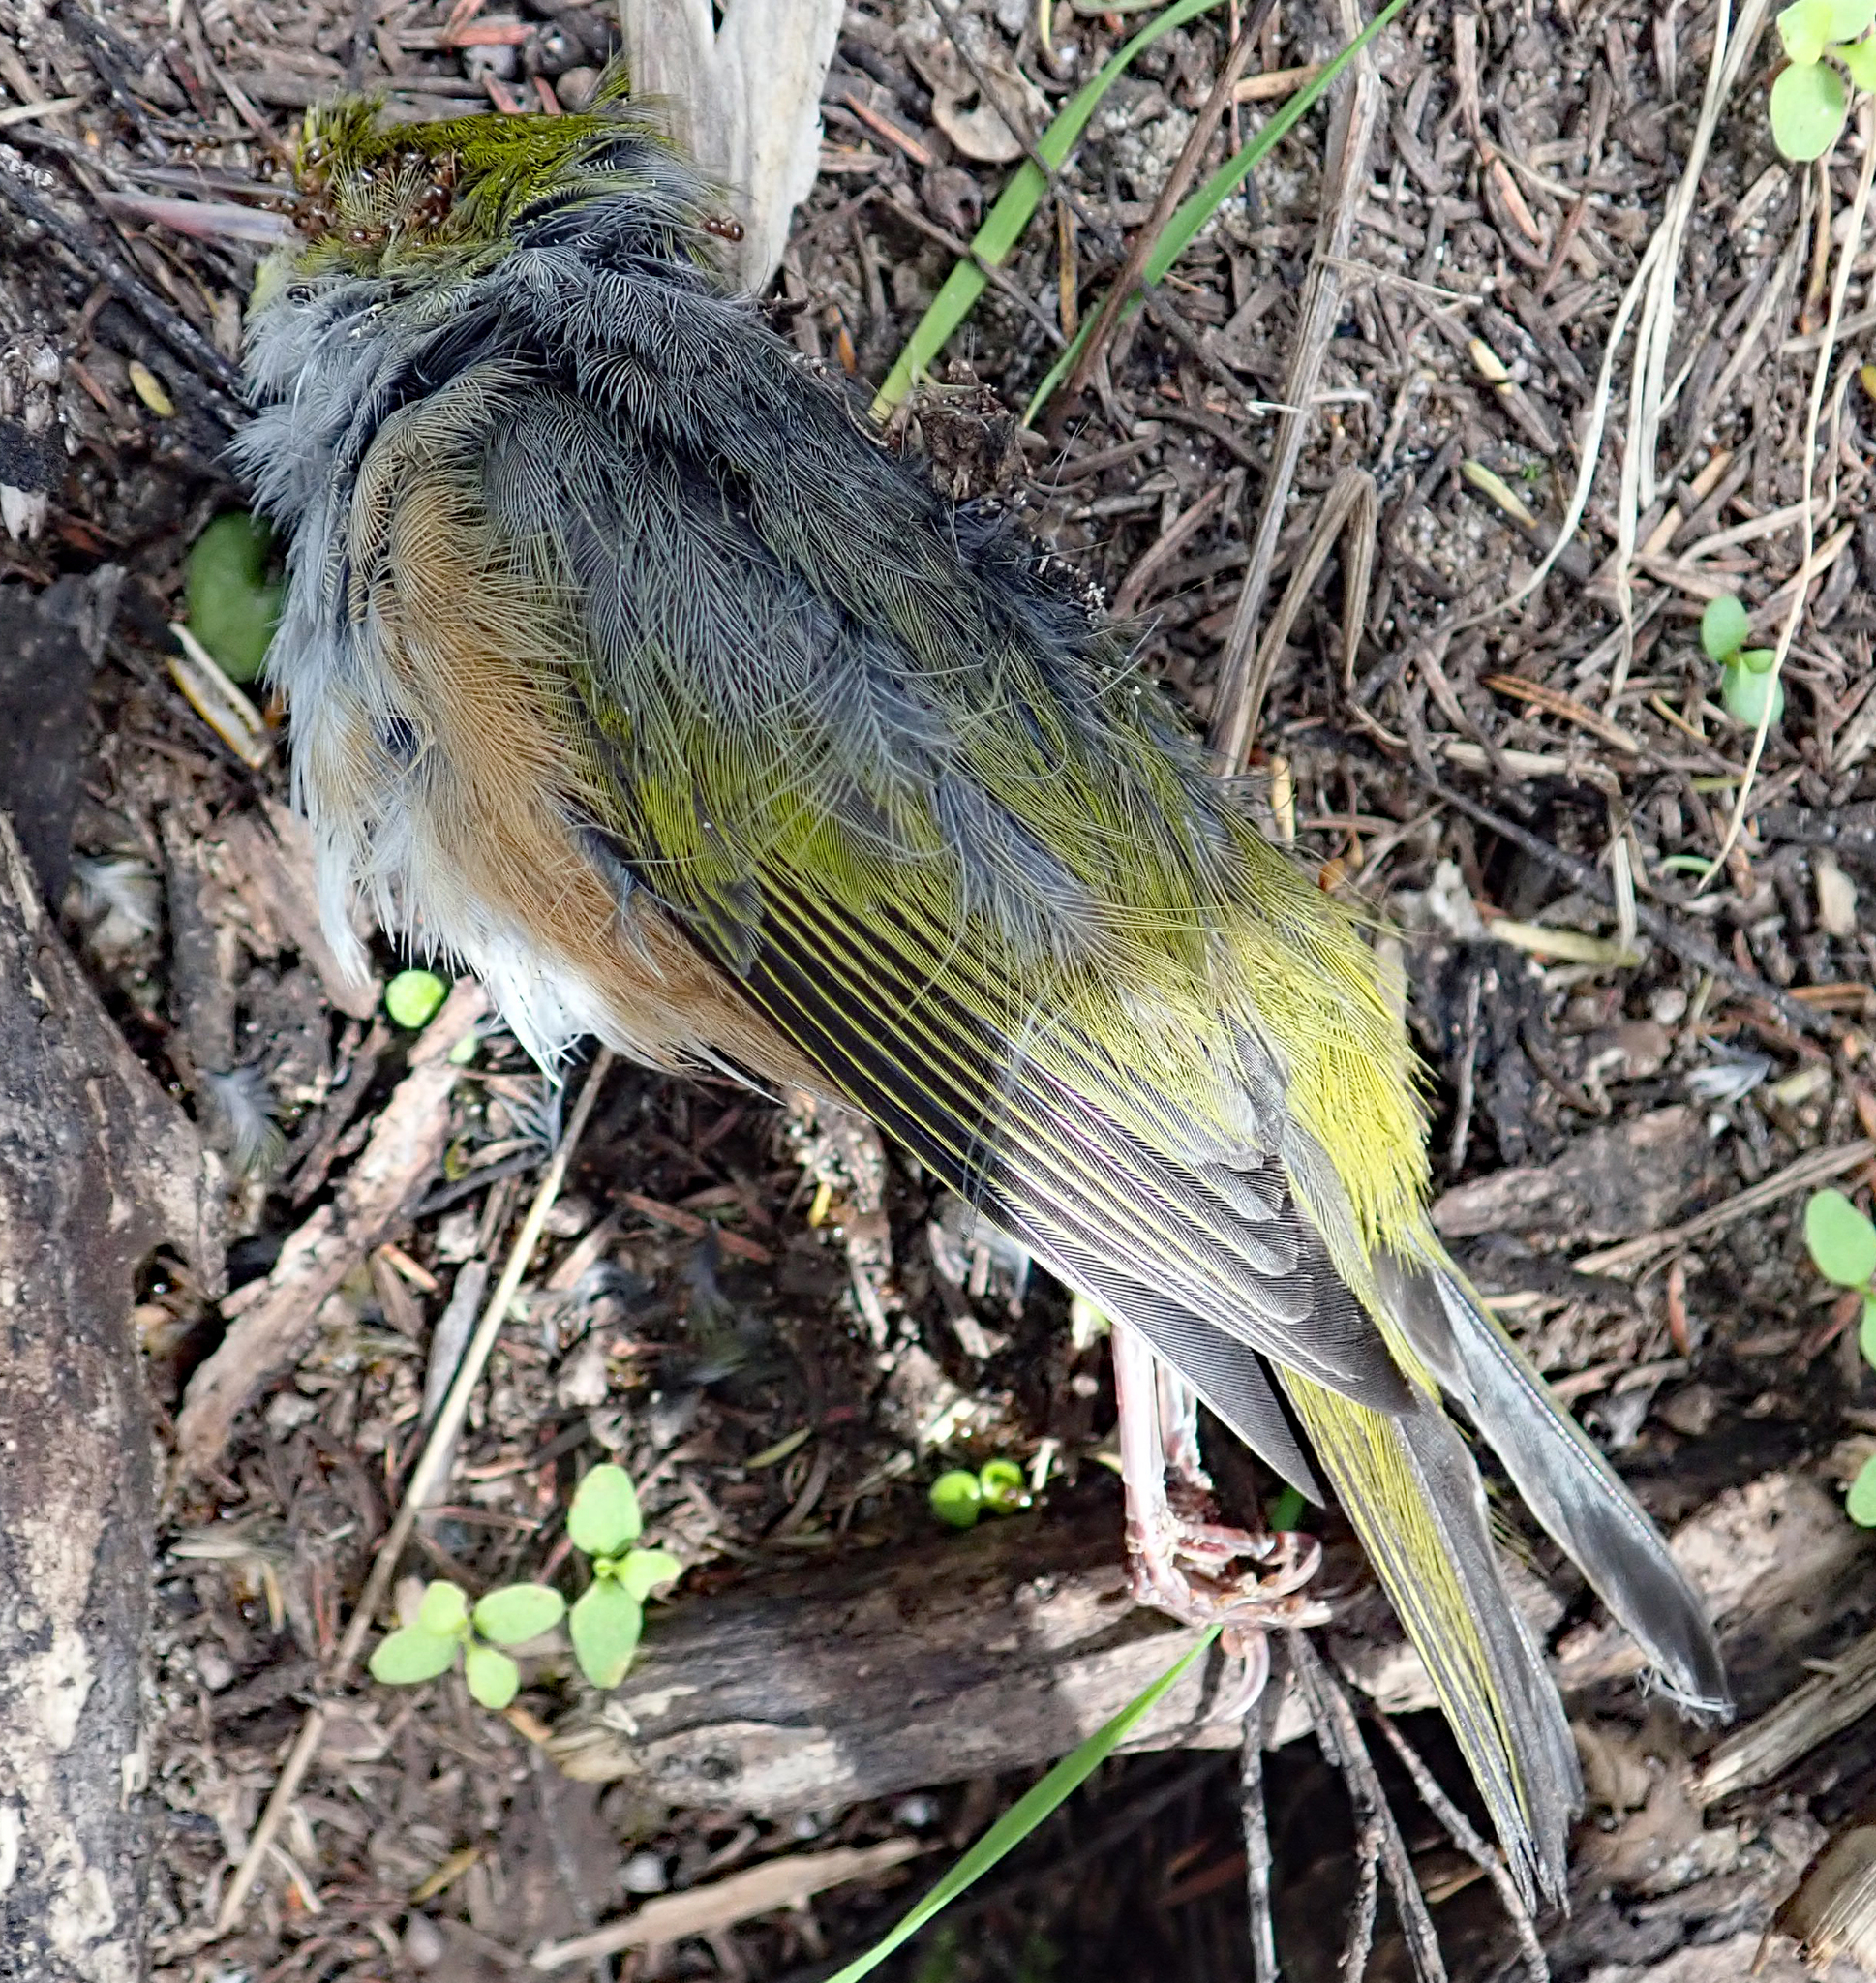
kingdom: Animalia
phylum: Chordata
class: Aves
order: Passeriformes
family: Zosteropidae
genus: Zosterops
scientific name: Zosterops lateralis
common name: Silvereye
